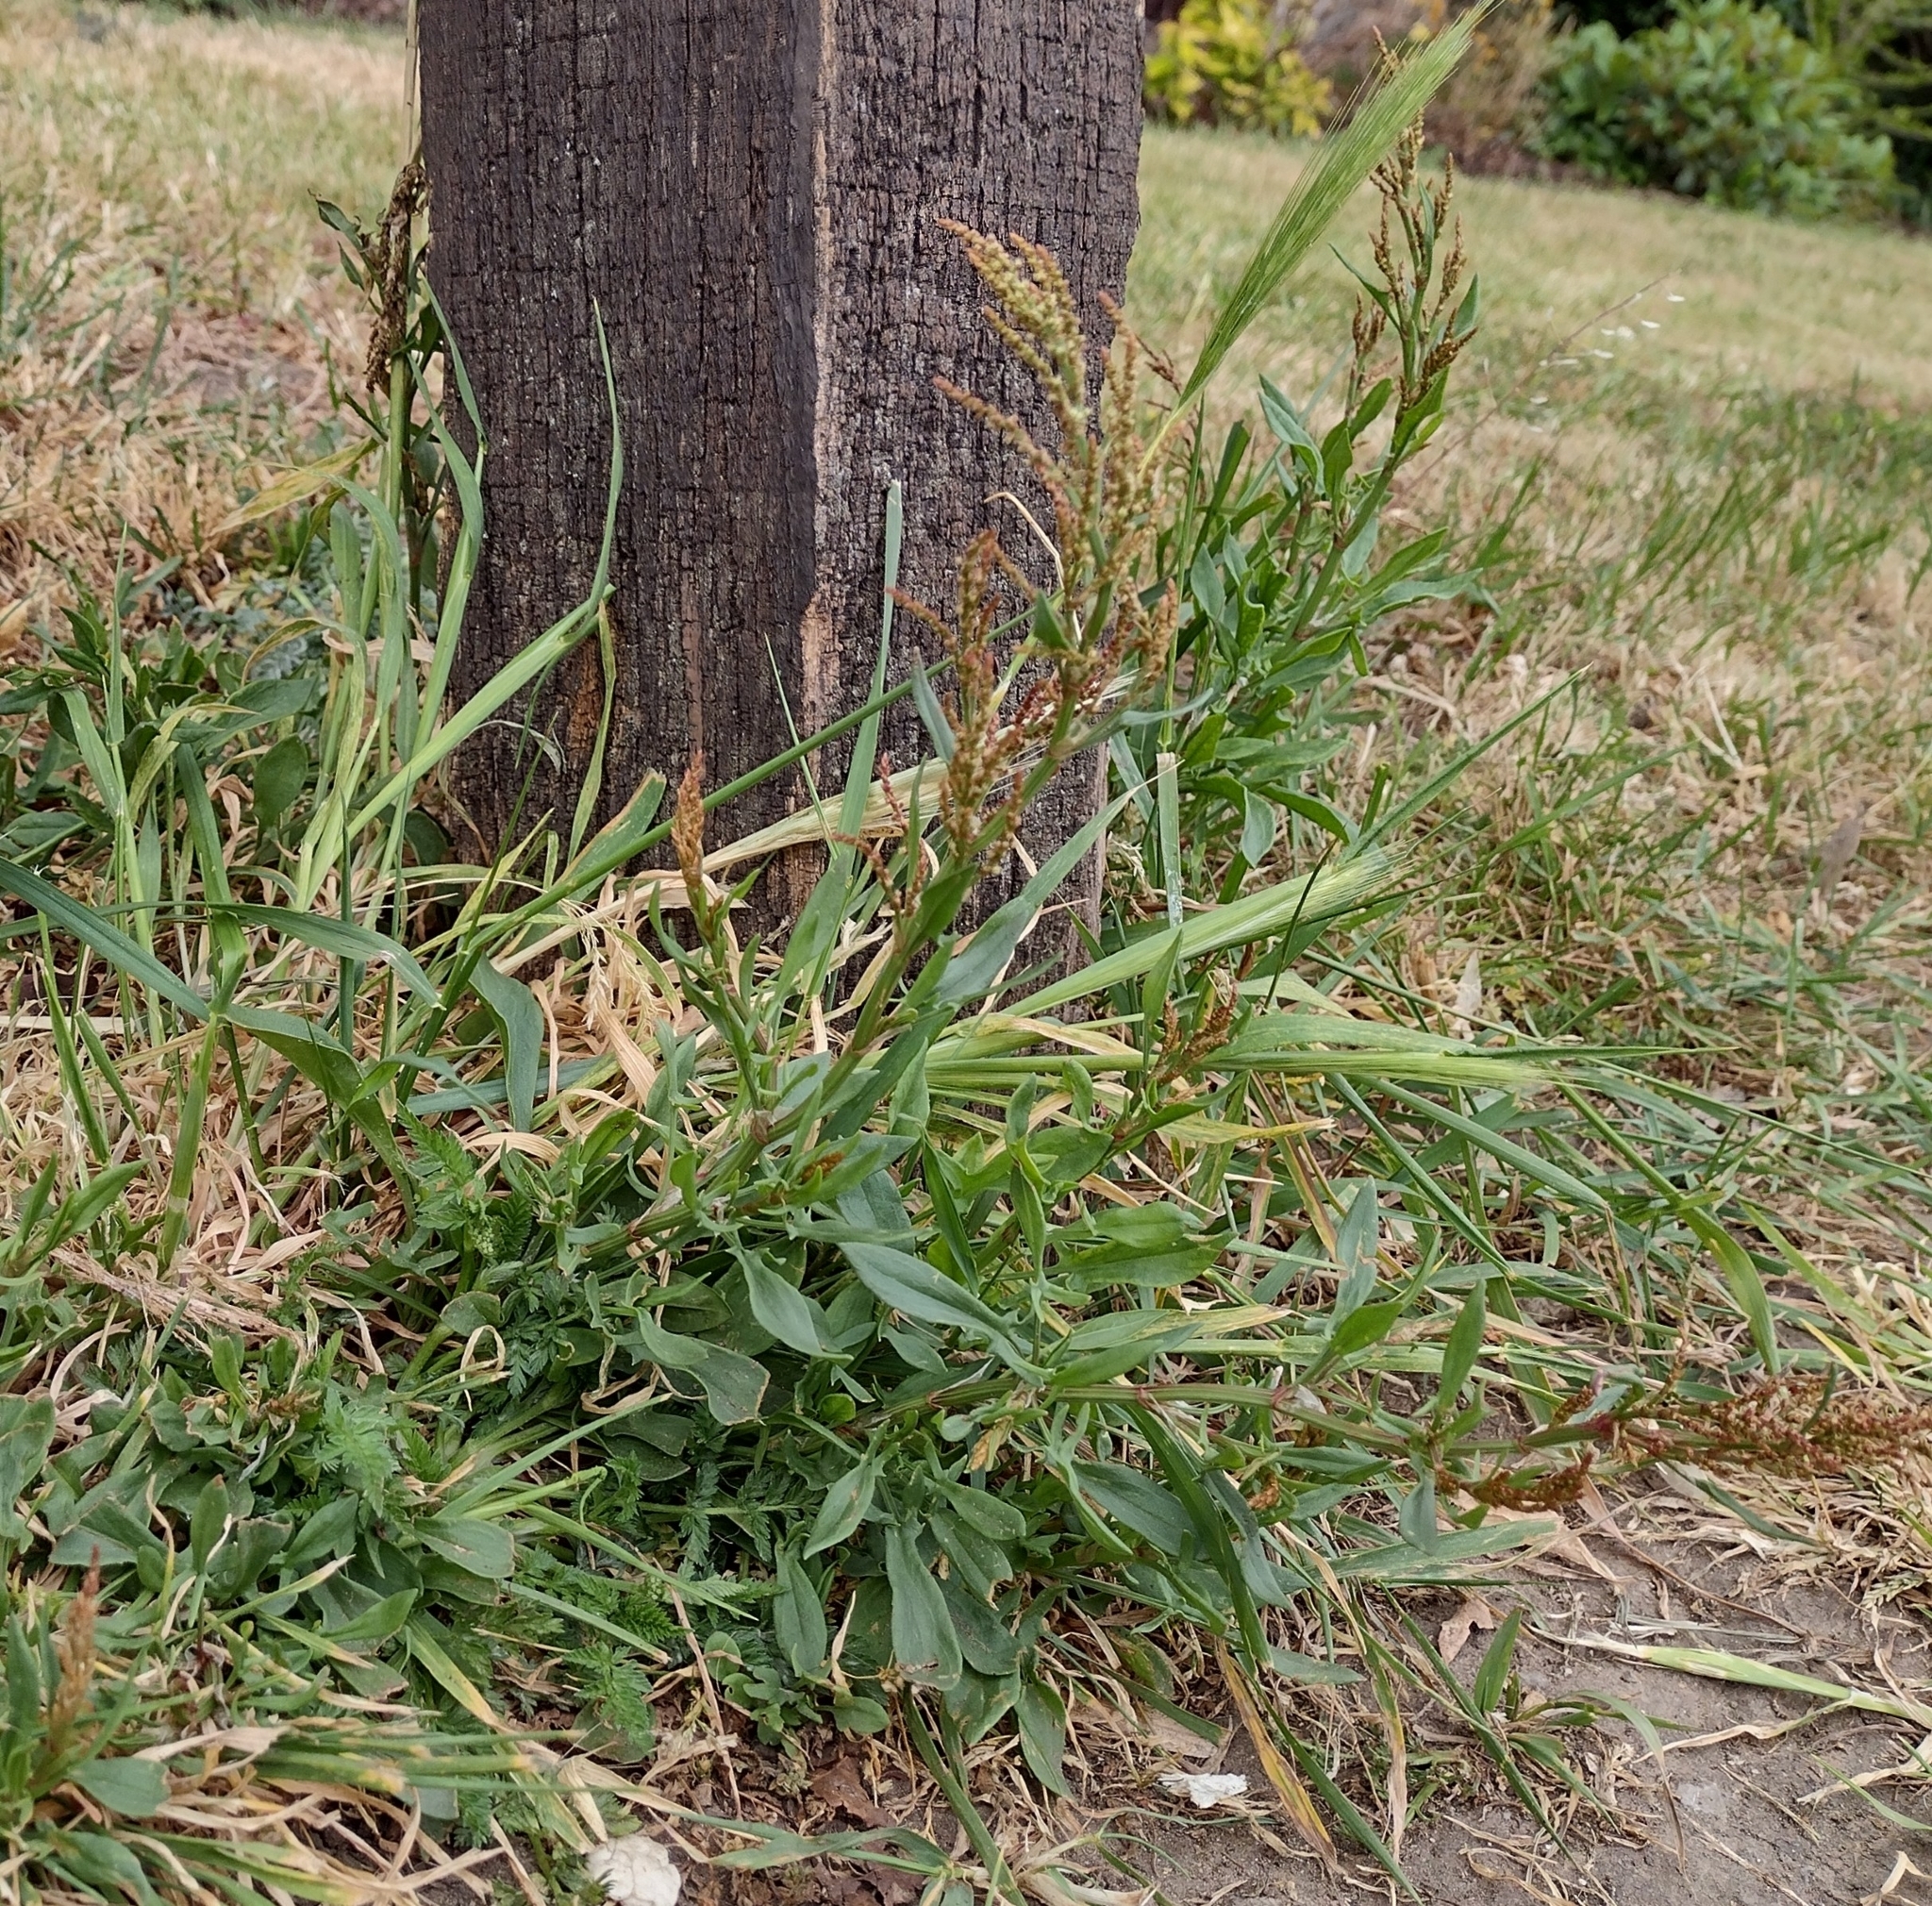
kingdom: Plantae
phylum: Tracheophyta
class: Magnoliopsida
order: Caryophyllales
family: Polygonaceae
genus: Rumex
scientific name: Rumex acetosella
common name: Common sheep sorrel
